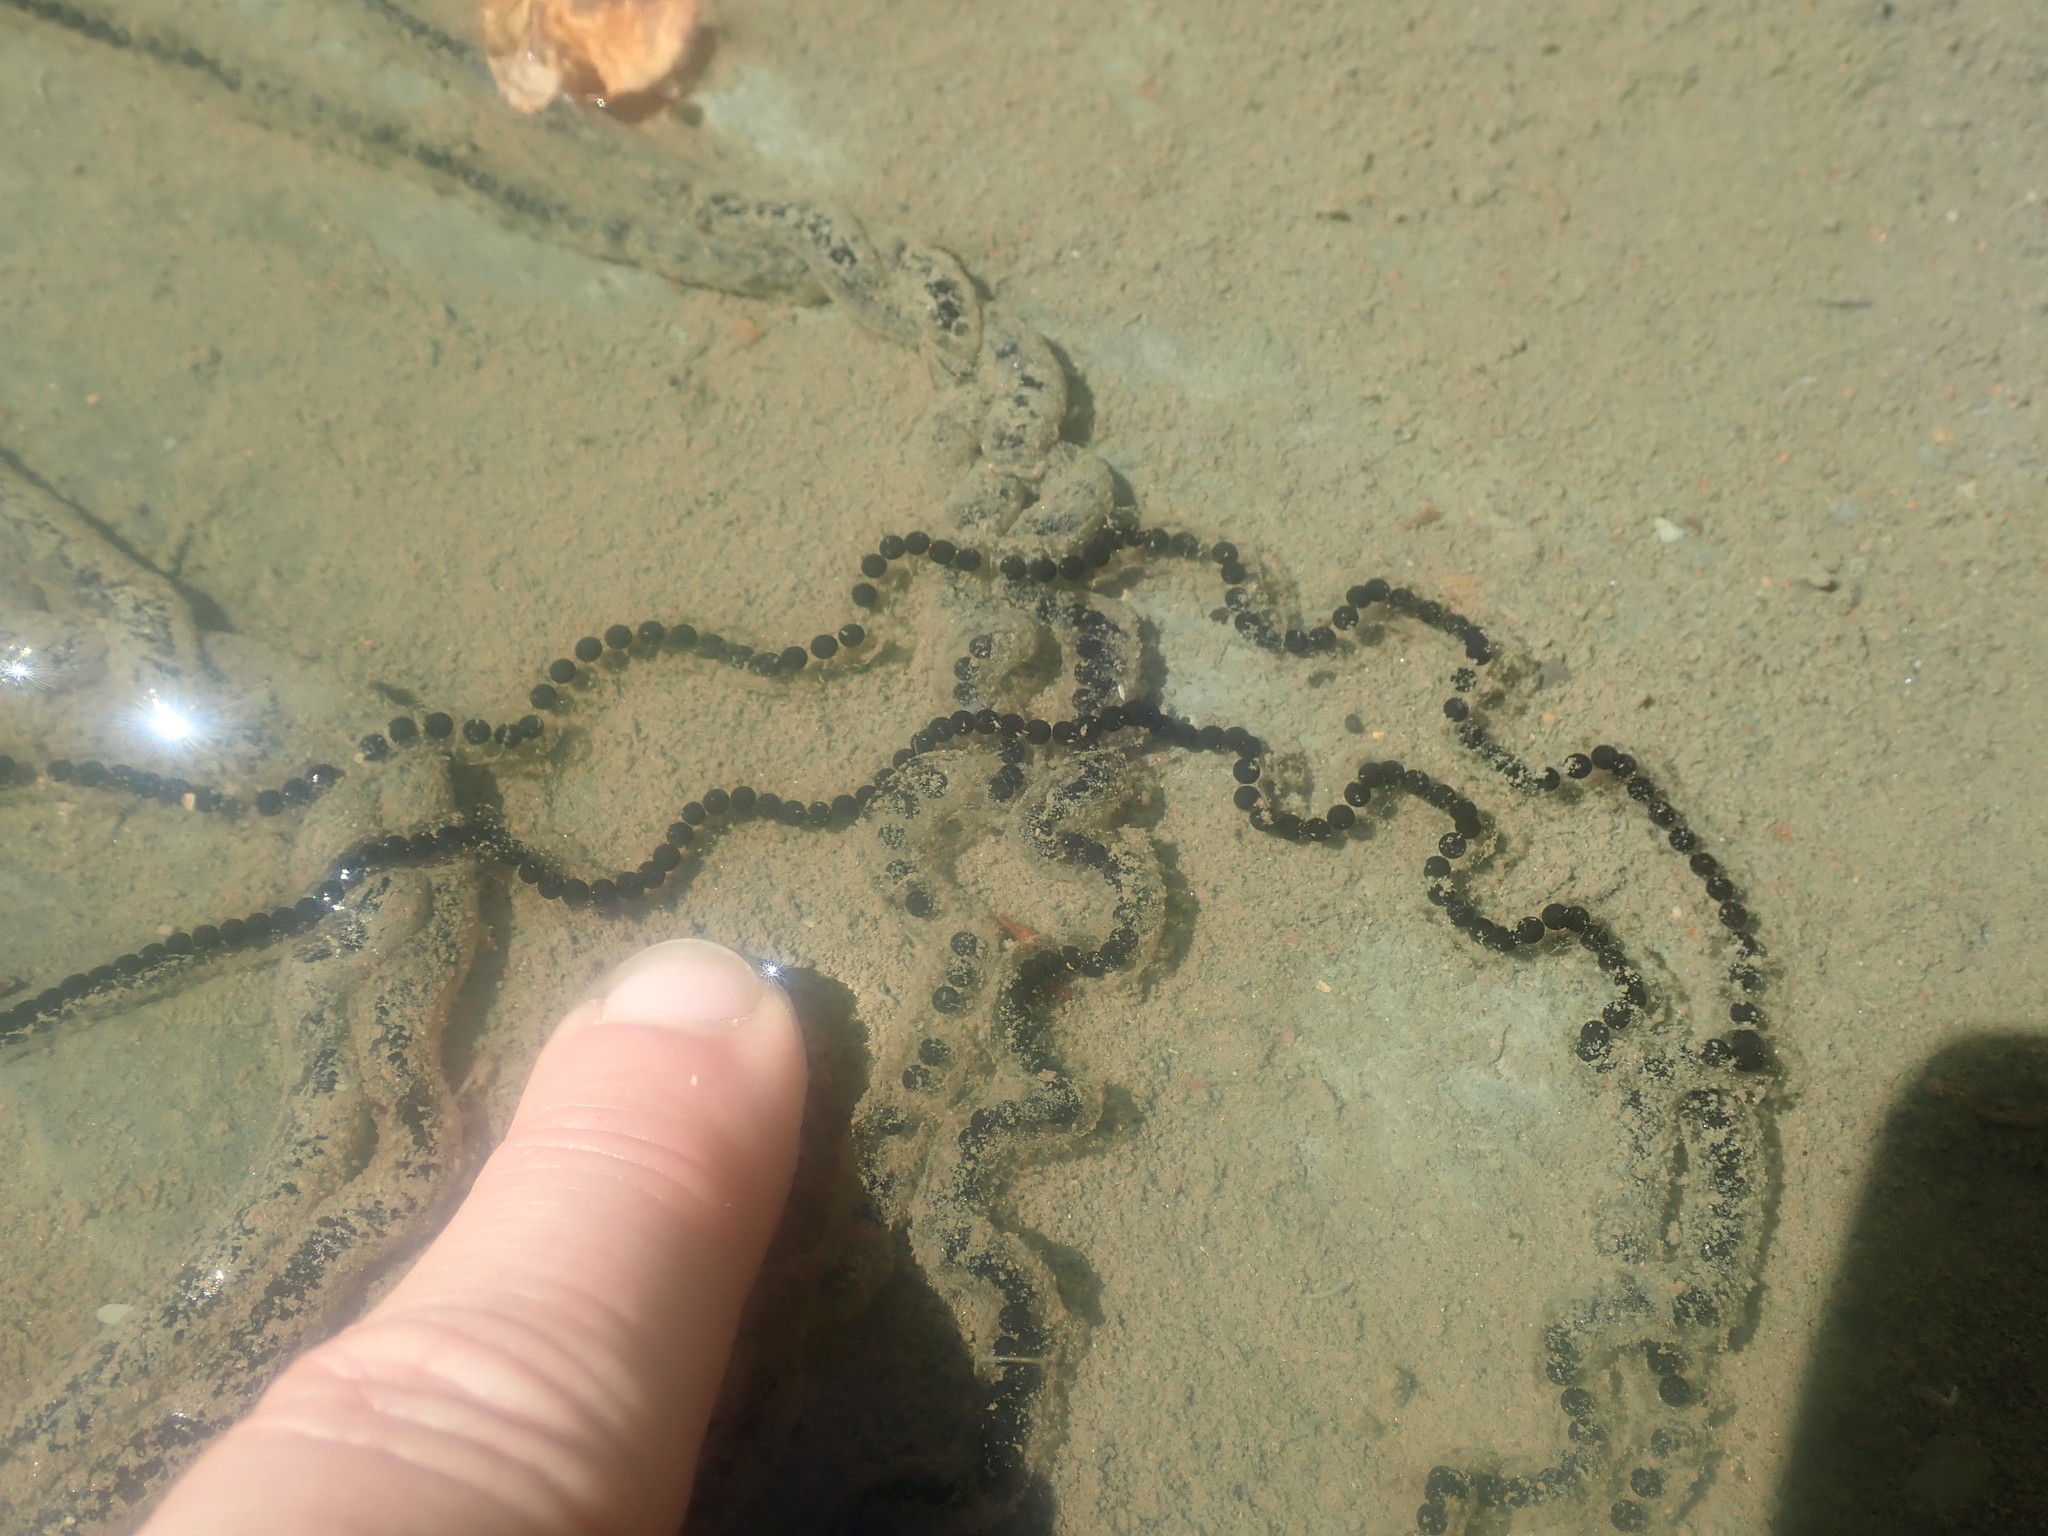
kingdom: Animalia
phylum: Chordata
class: Amphibia
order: Anura
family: Bufonidae
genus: Anaxyrus
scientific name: Anaxyrus americanus
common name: American toad
